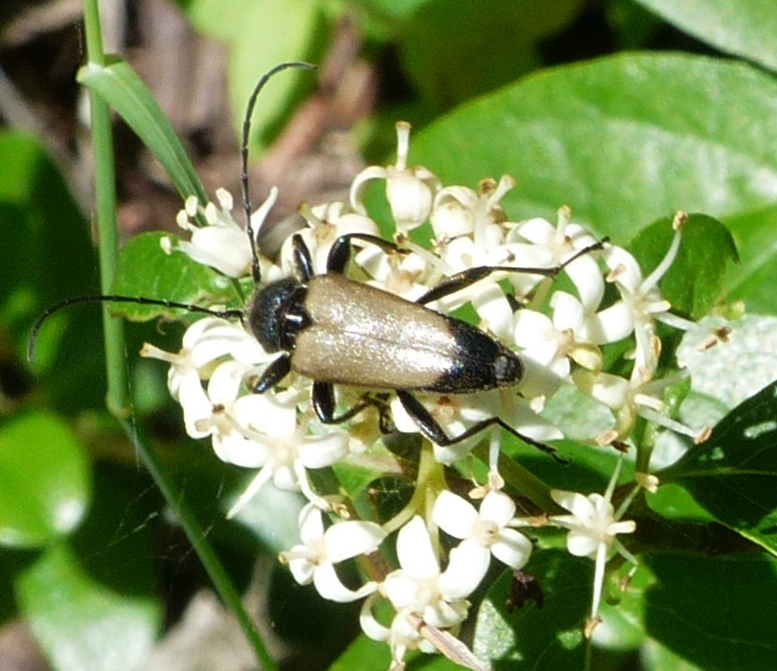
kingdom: Animalia
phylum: Arthropoda
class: Insecta
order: Coleoptera
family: Cerambycidae
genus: Trigonarthris
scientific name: Trigonarthris proxima
